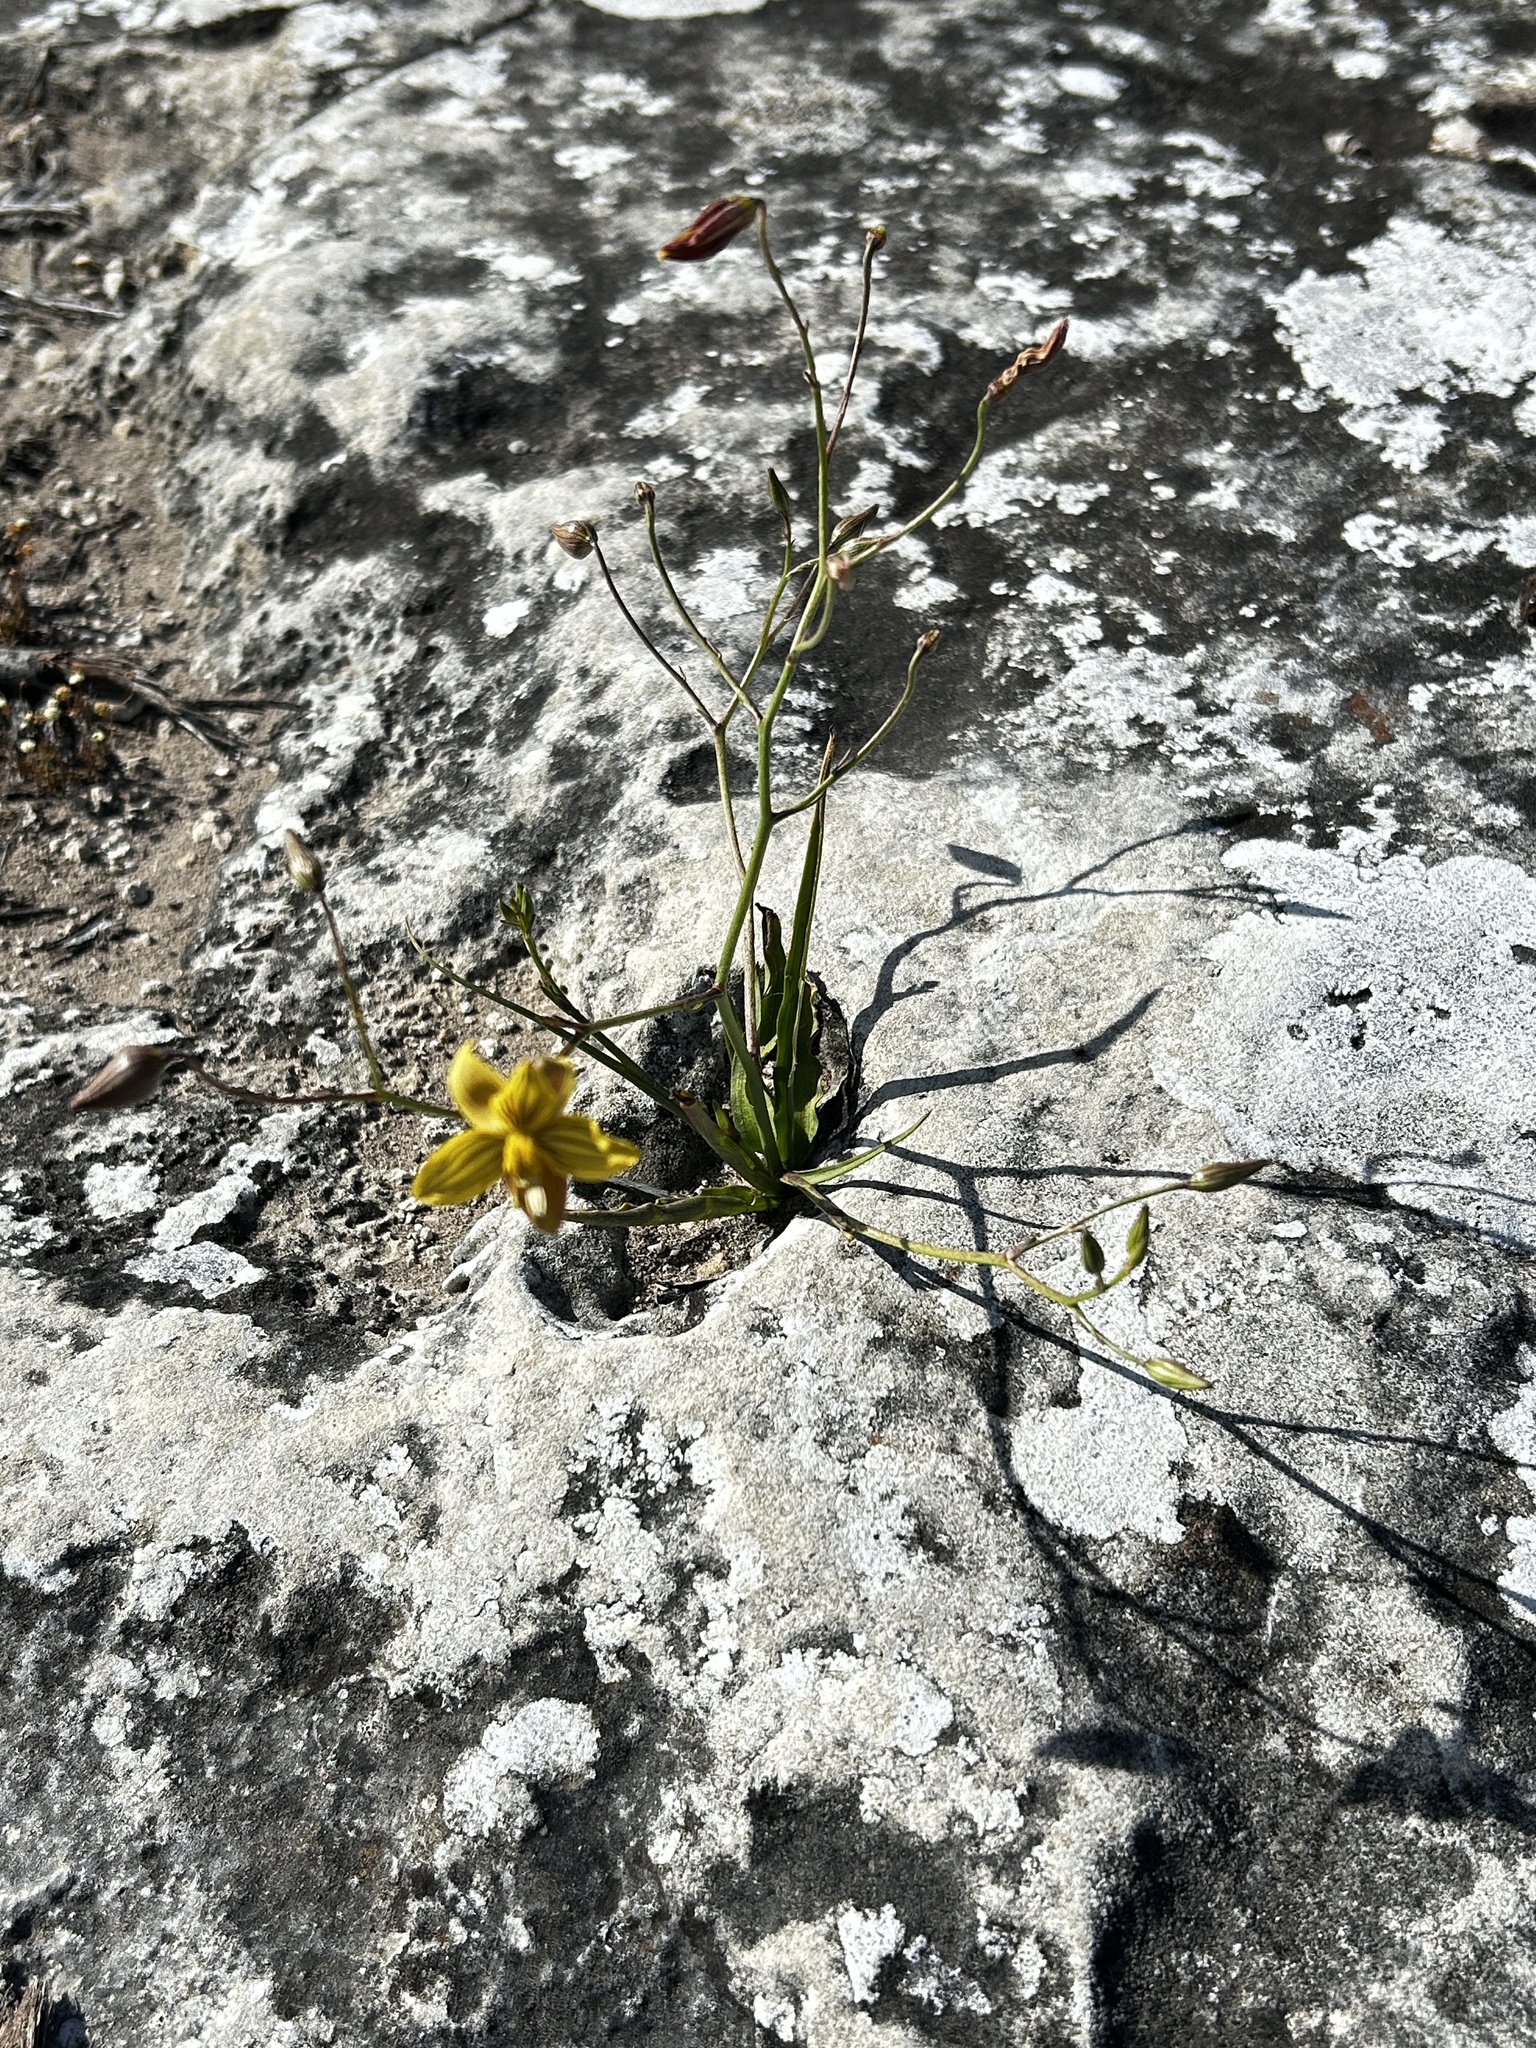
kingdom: Plantae
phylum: Tracheophyta
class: Liliopsida
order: Asparagales
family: Tecophilaeaceae
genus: Cyanella
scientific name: Cyanella lutea
